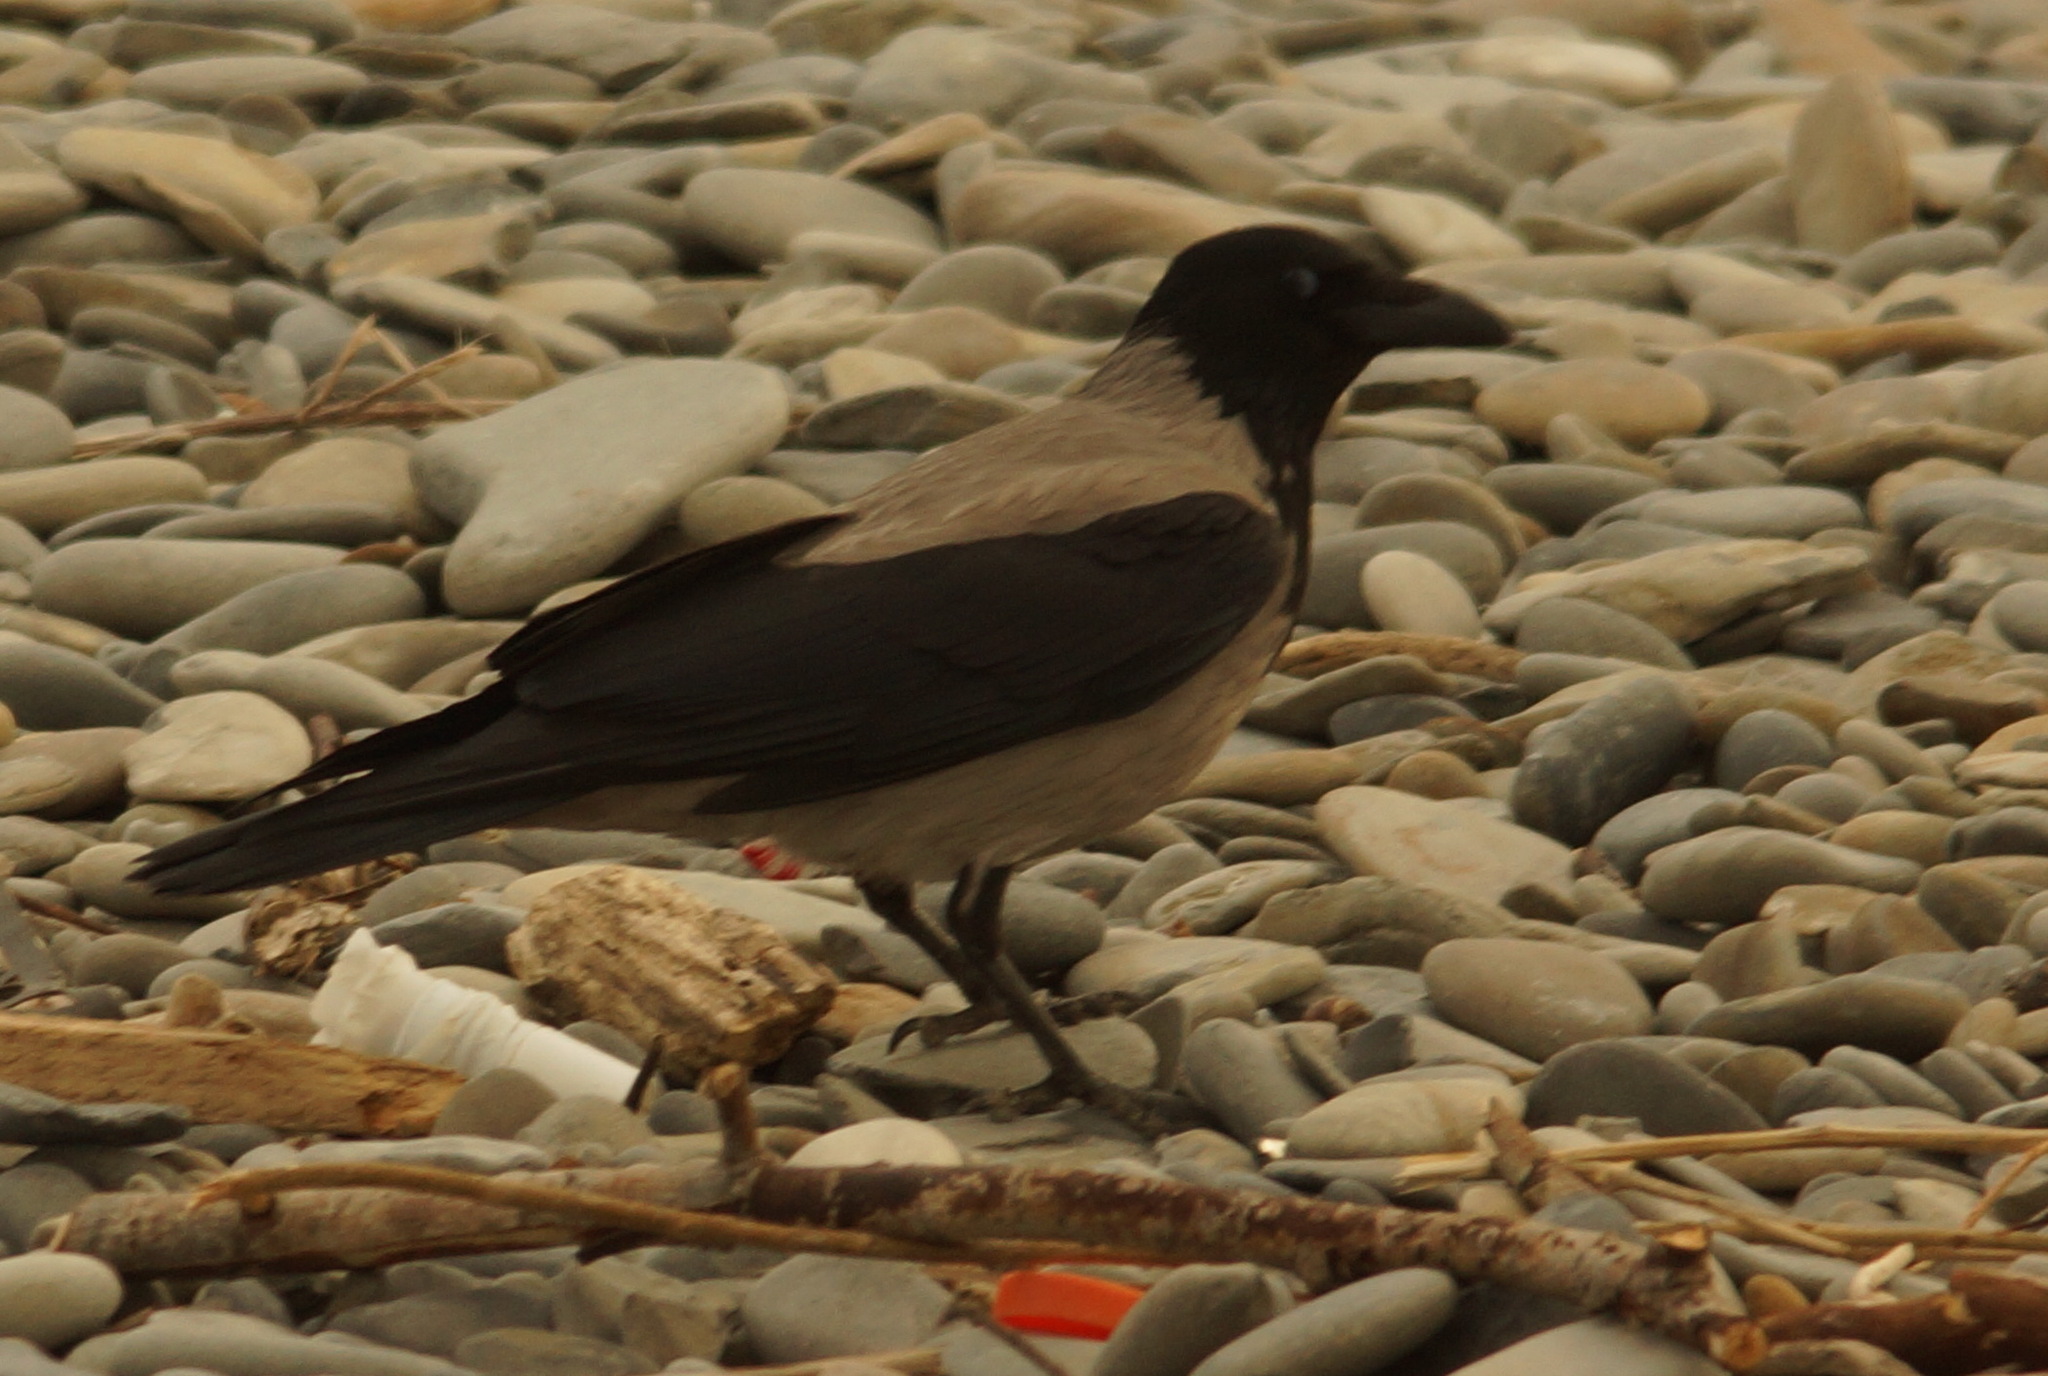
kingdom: Animalia
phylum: Chordata
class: Aves
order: Passeriformes
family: Corvidae
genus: Corvus
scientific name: Corvus cornix
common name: Hooded crow
